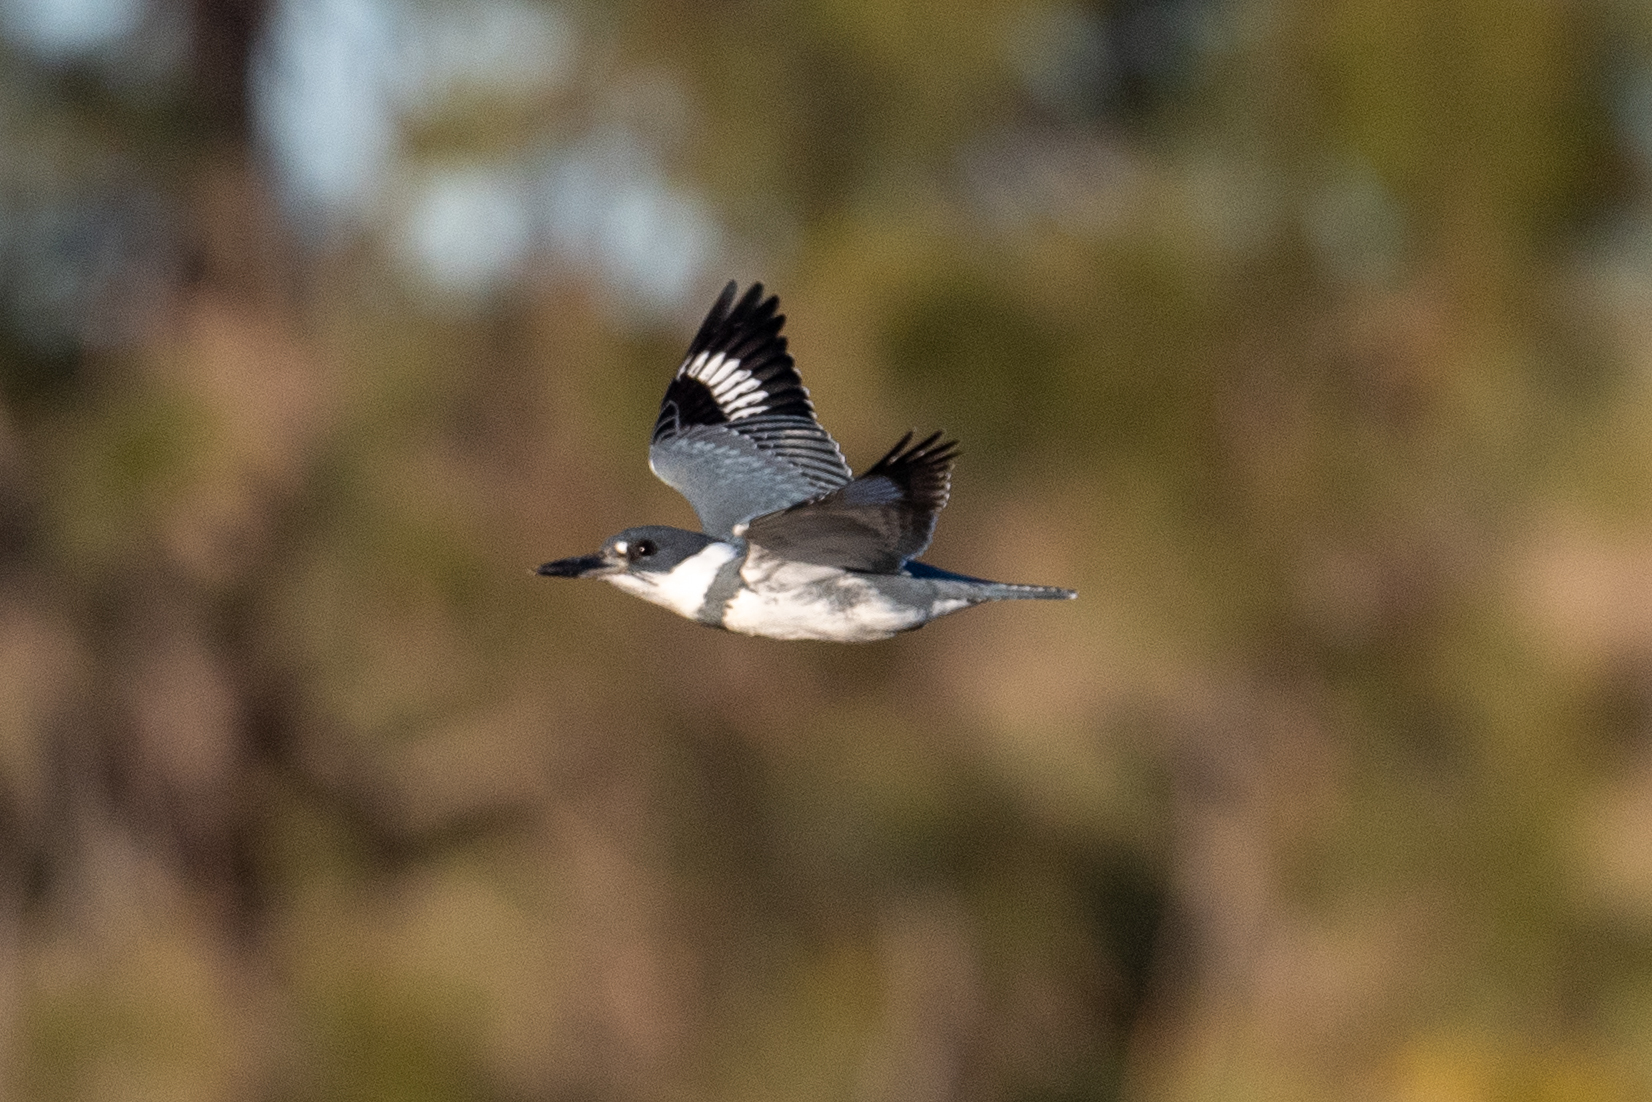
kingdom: Animalia
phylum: Chordata
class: Aves
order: Coraciiformes
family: Alcedinidae
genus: Megaceryle
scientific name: Megaceryle alcyon
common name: Belted kingfisher
